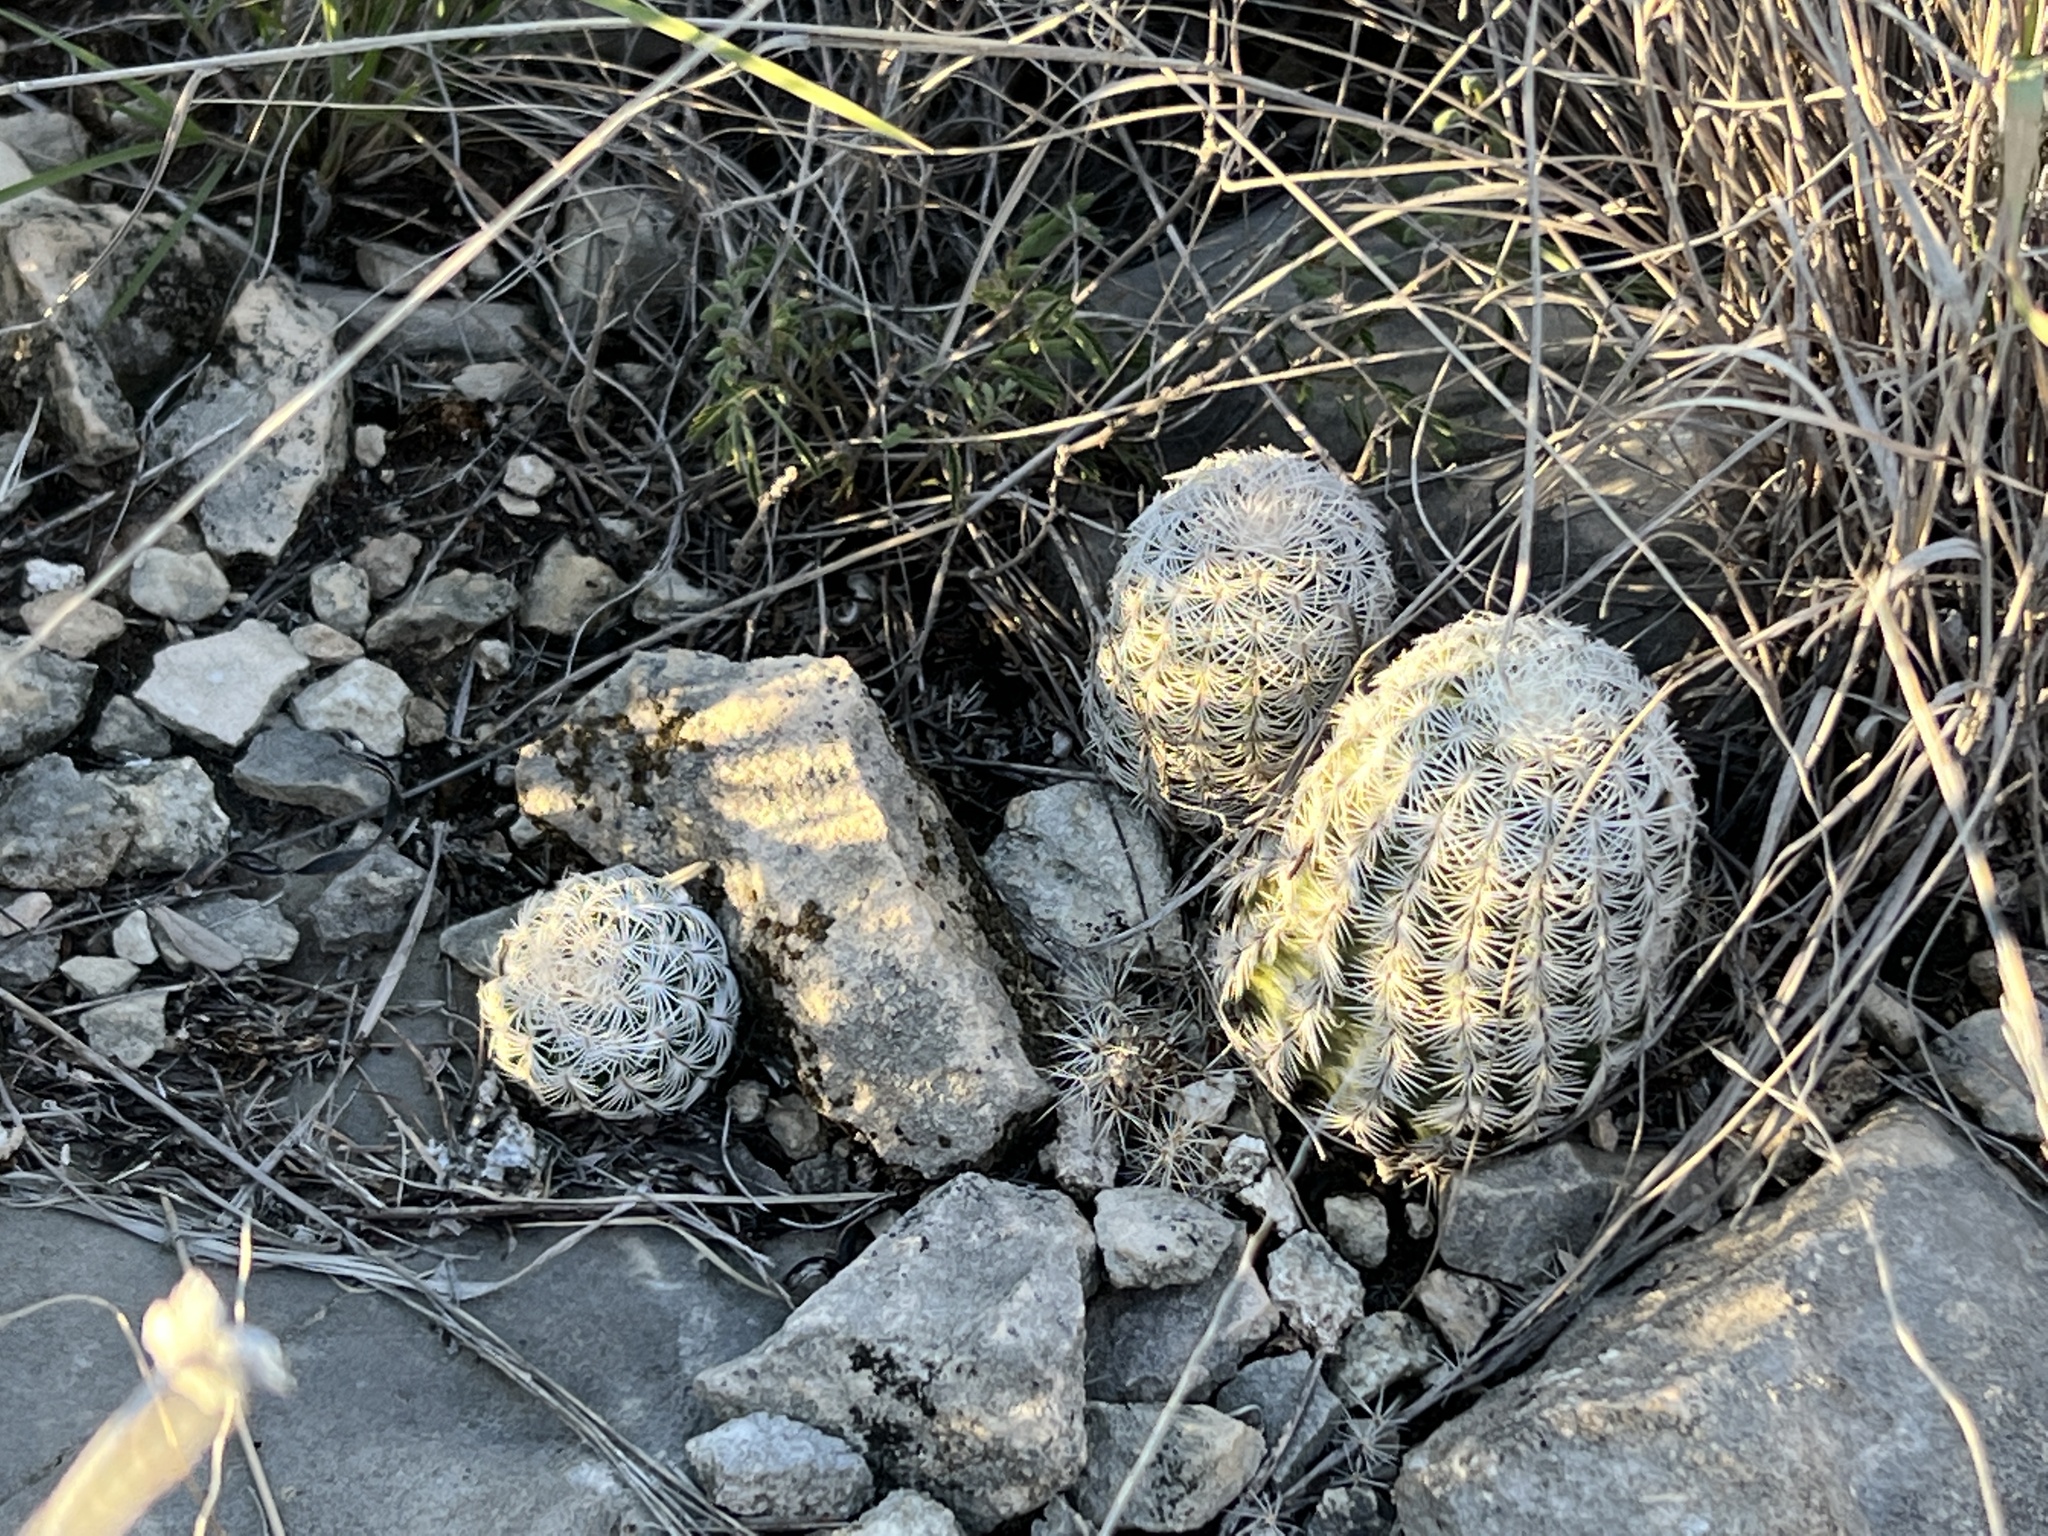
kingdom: Plantae
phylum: Tracheophyta
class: Magnoliopsida
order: Caryophyllales
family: Cactaceae
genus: Echinocereus
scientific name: Echinocereus reichenbachii
